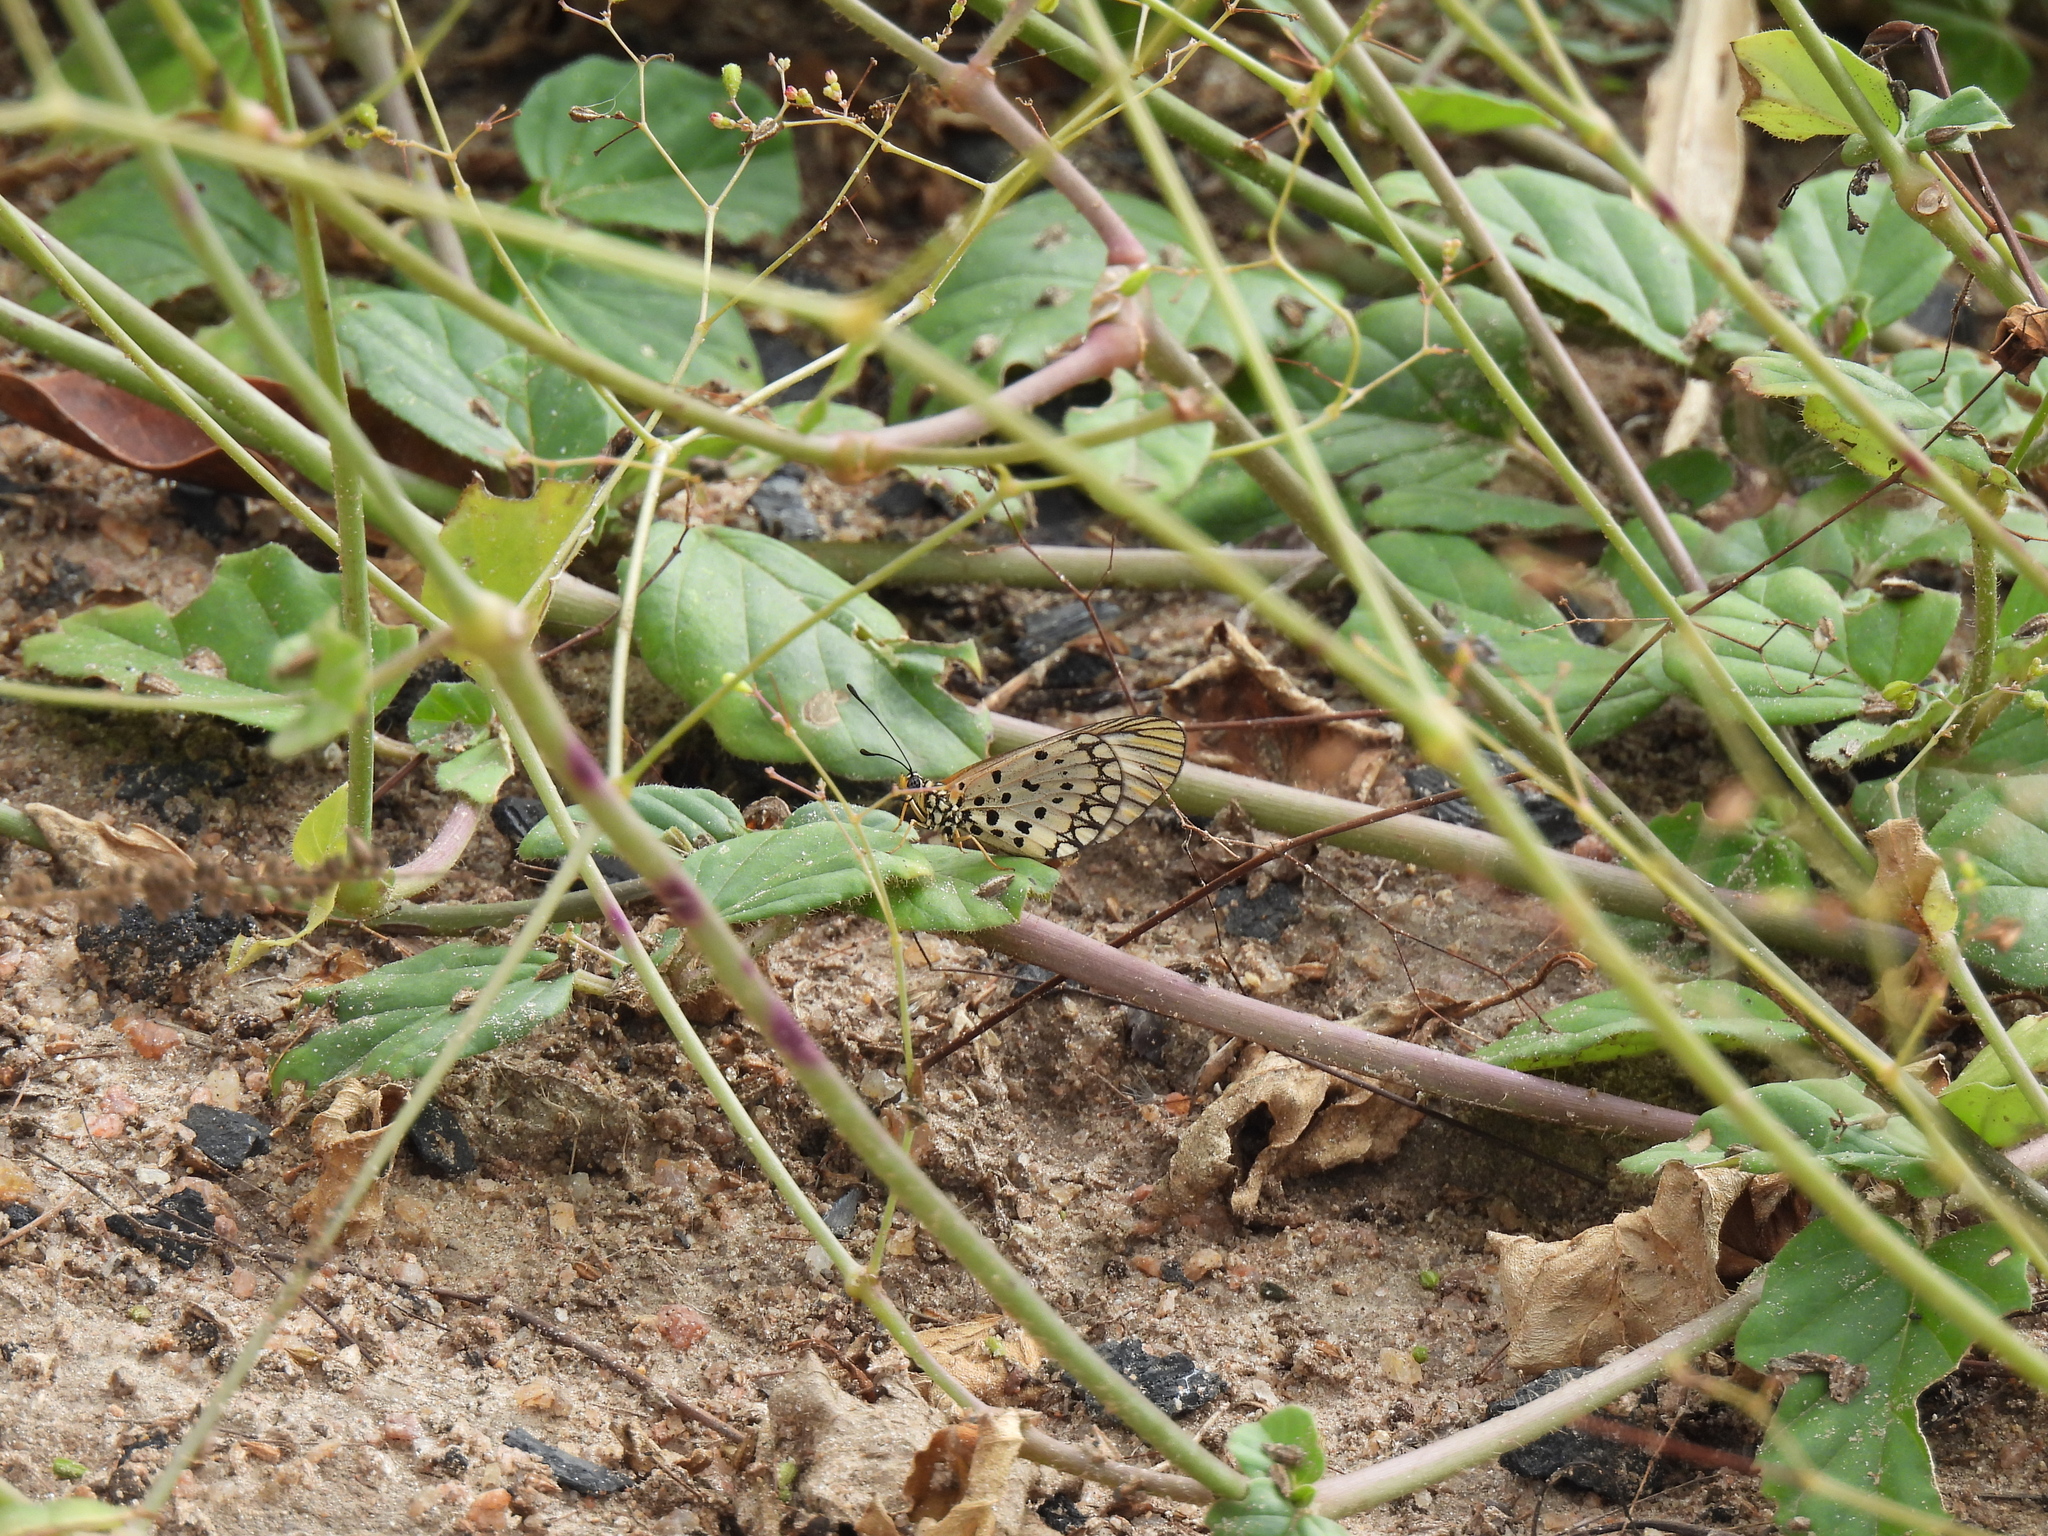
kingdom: Animalia
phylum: Arthropoda
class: Insecta
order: Lepidoptera
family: Nymphalidae
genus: Acraea
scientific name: Acraea Telchinia serena
